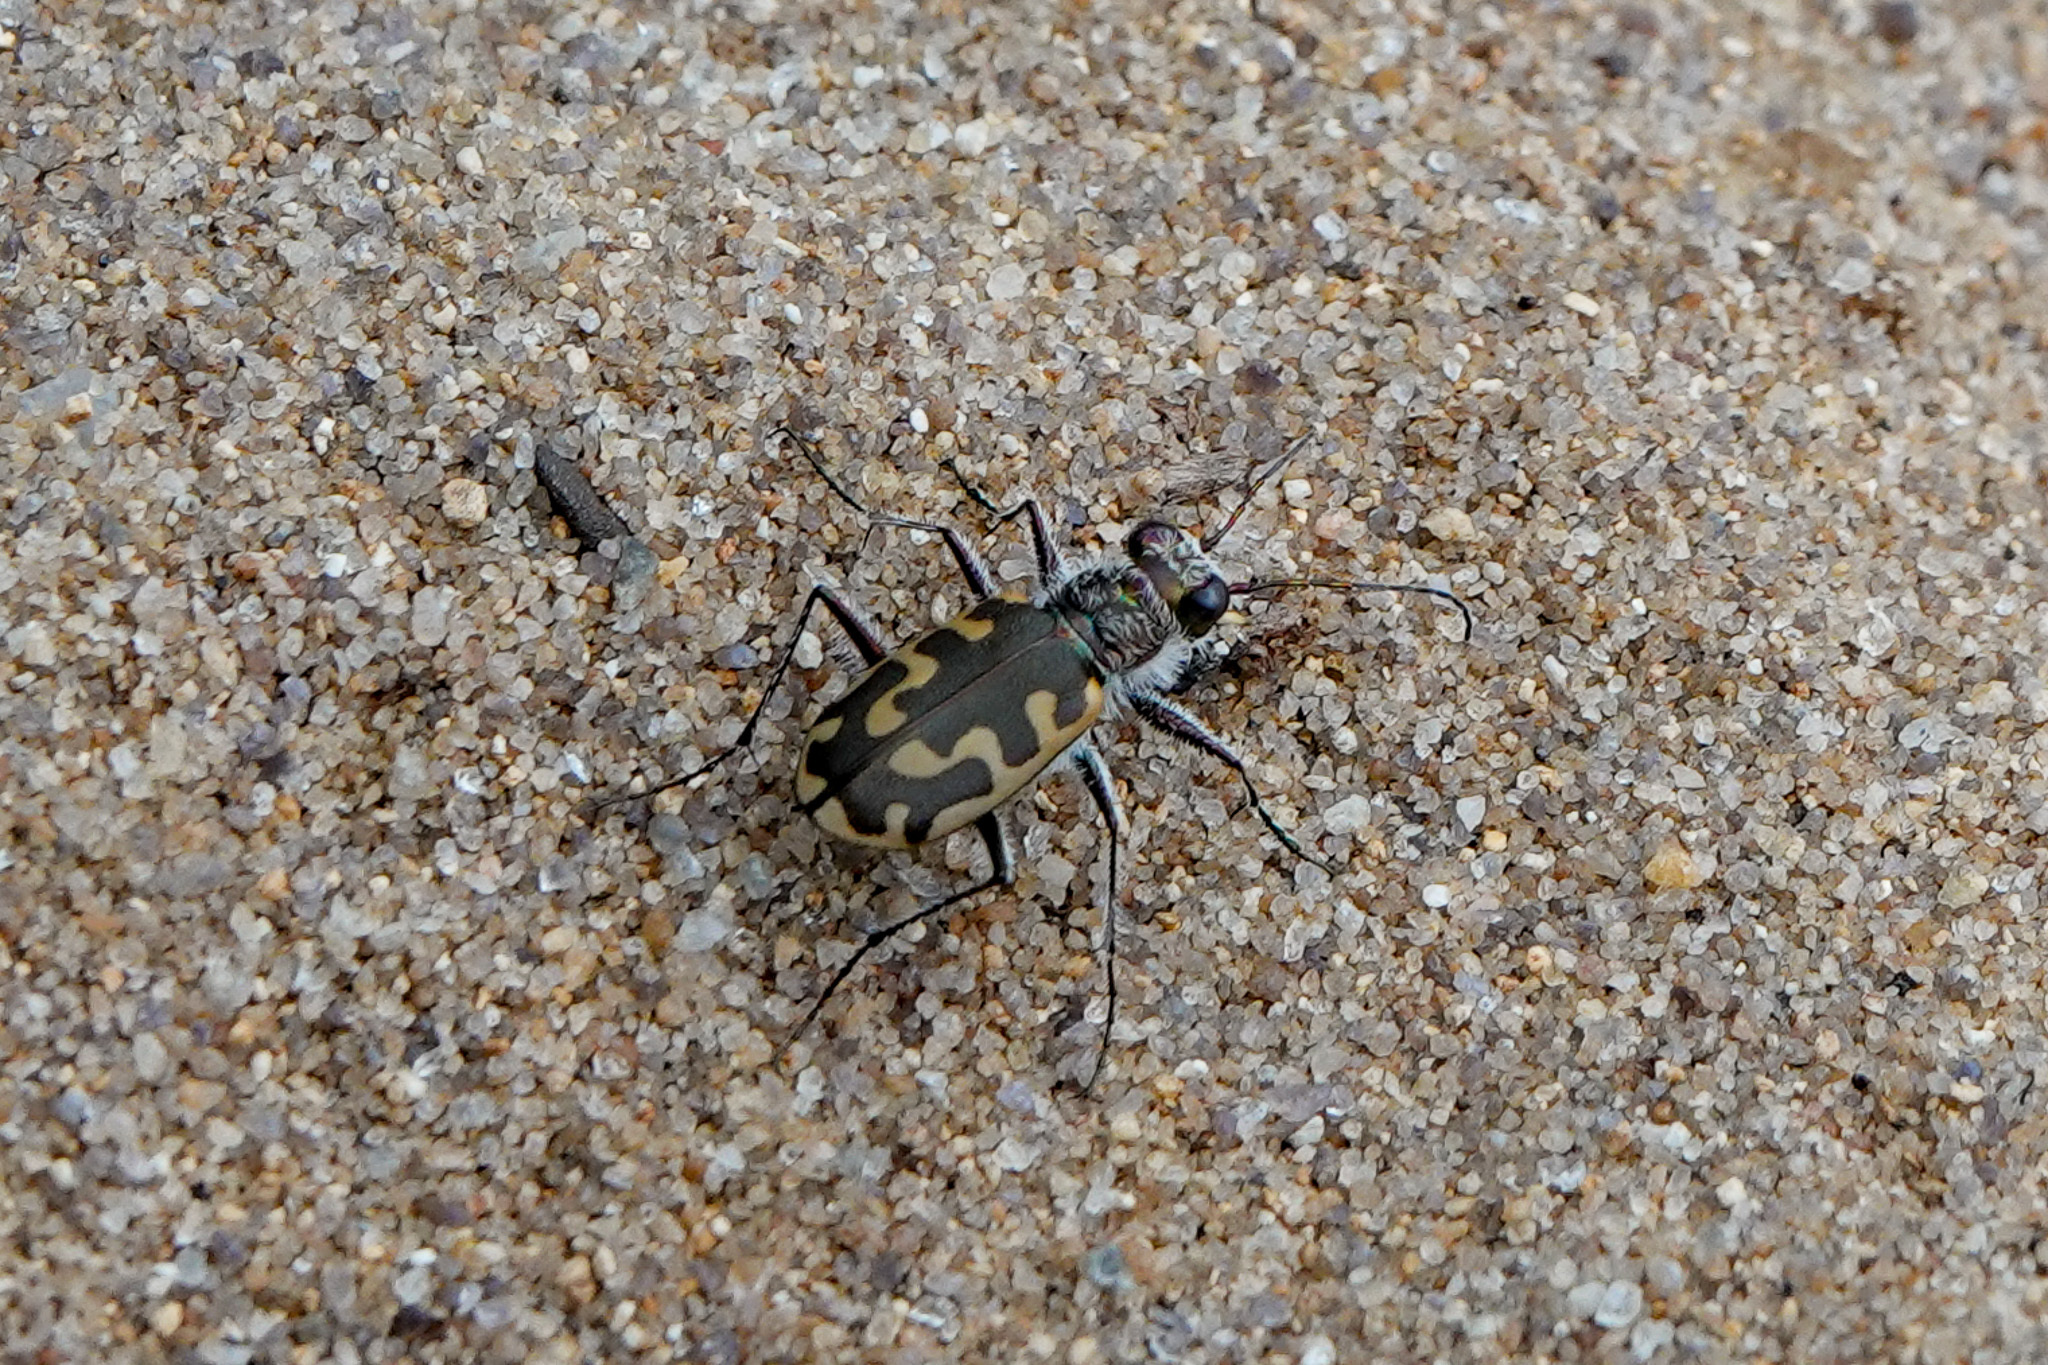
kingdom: Animalia
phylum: Arthropoda
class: Insecta
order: Coleoptera
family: Carabidae
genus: Cicindela
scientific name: Cicindela hirticollis
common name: Hairy-necked tiger beetle
